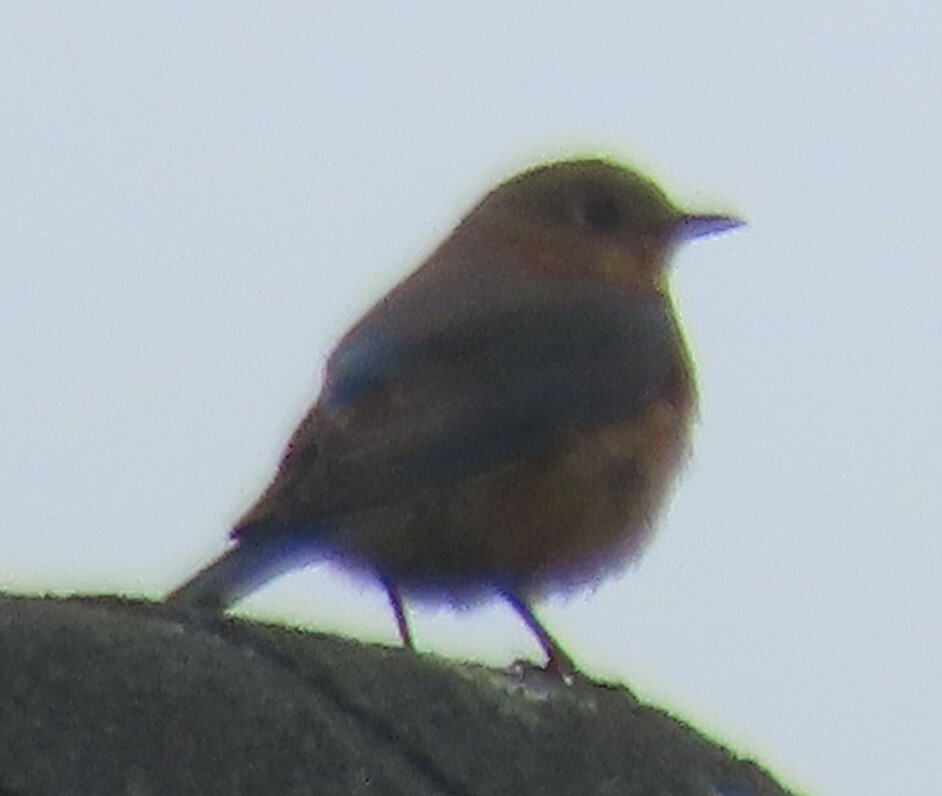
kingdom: Animalia
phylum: Chordata
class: Aves
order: Passeriformes
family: Turdidae
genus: Sialia
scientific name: Sialia sialis
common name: Eastern bluebird
